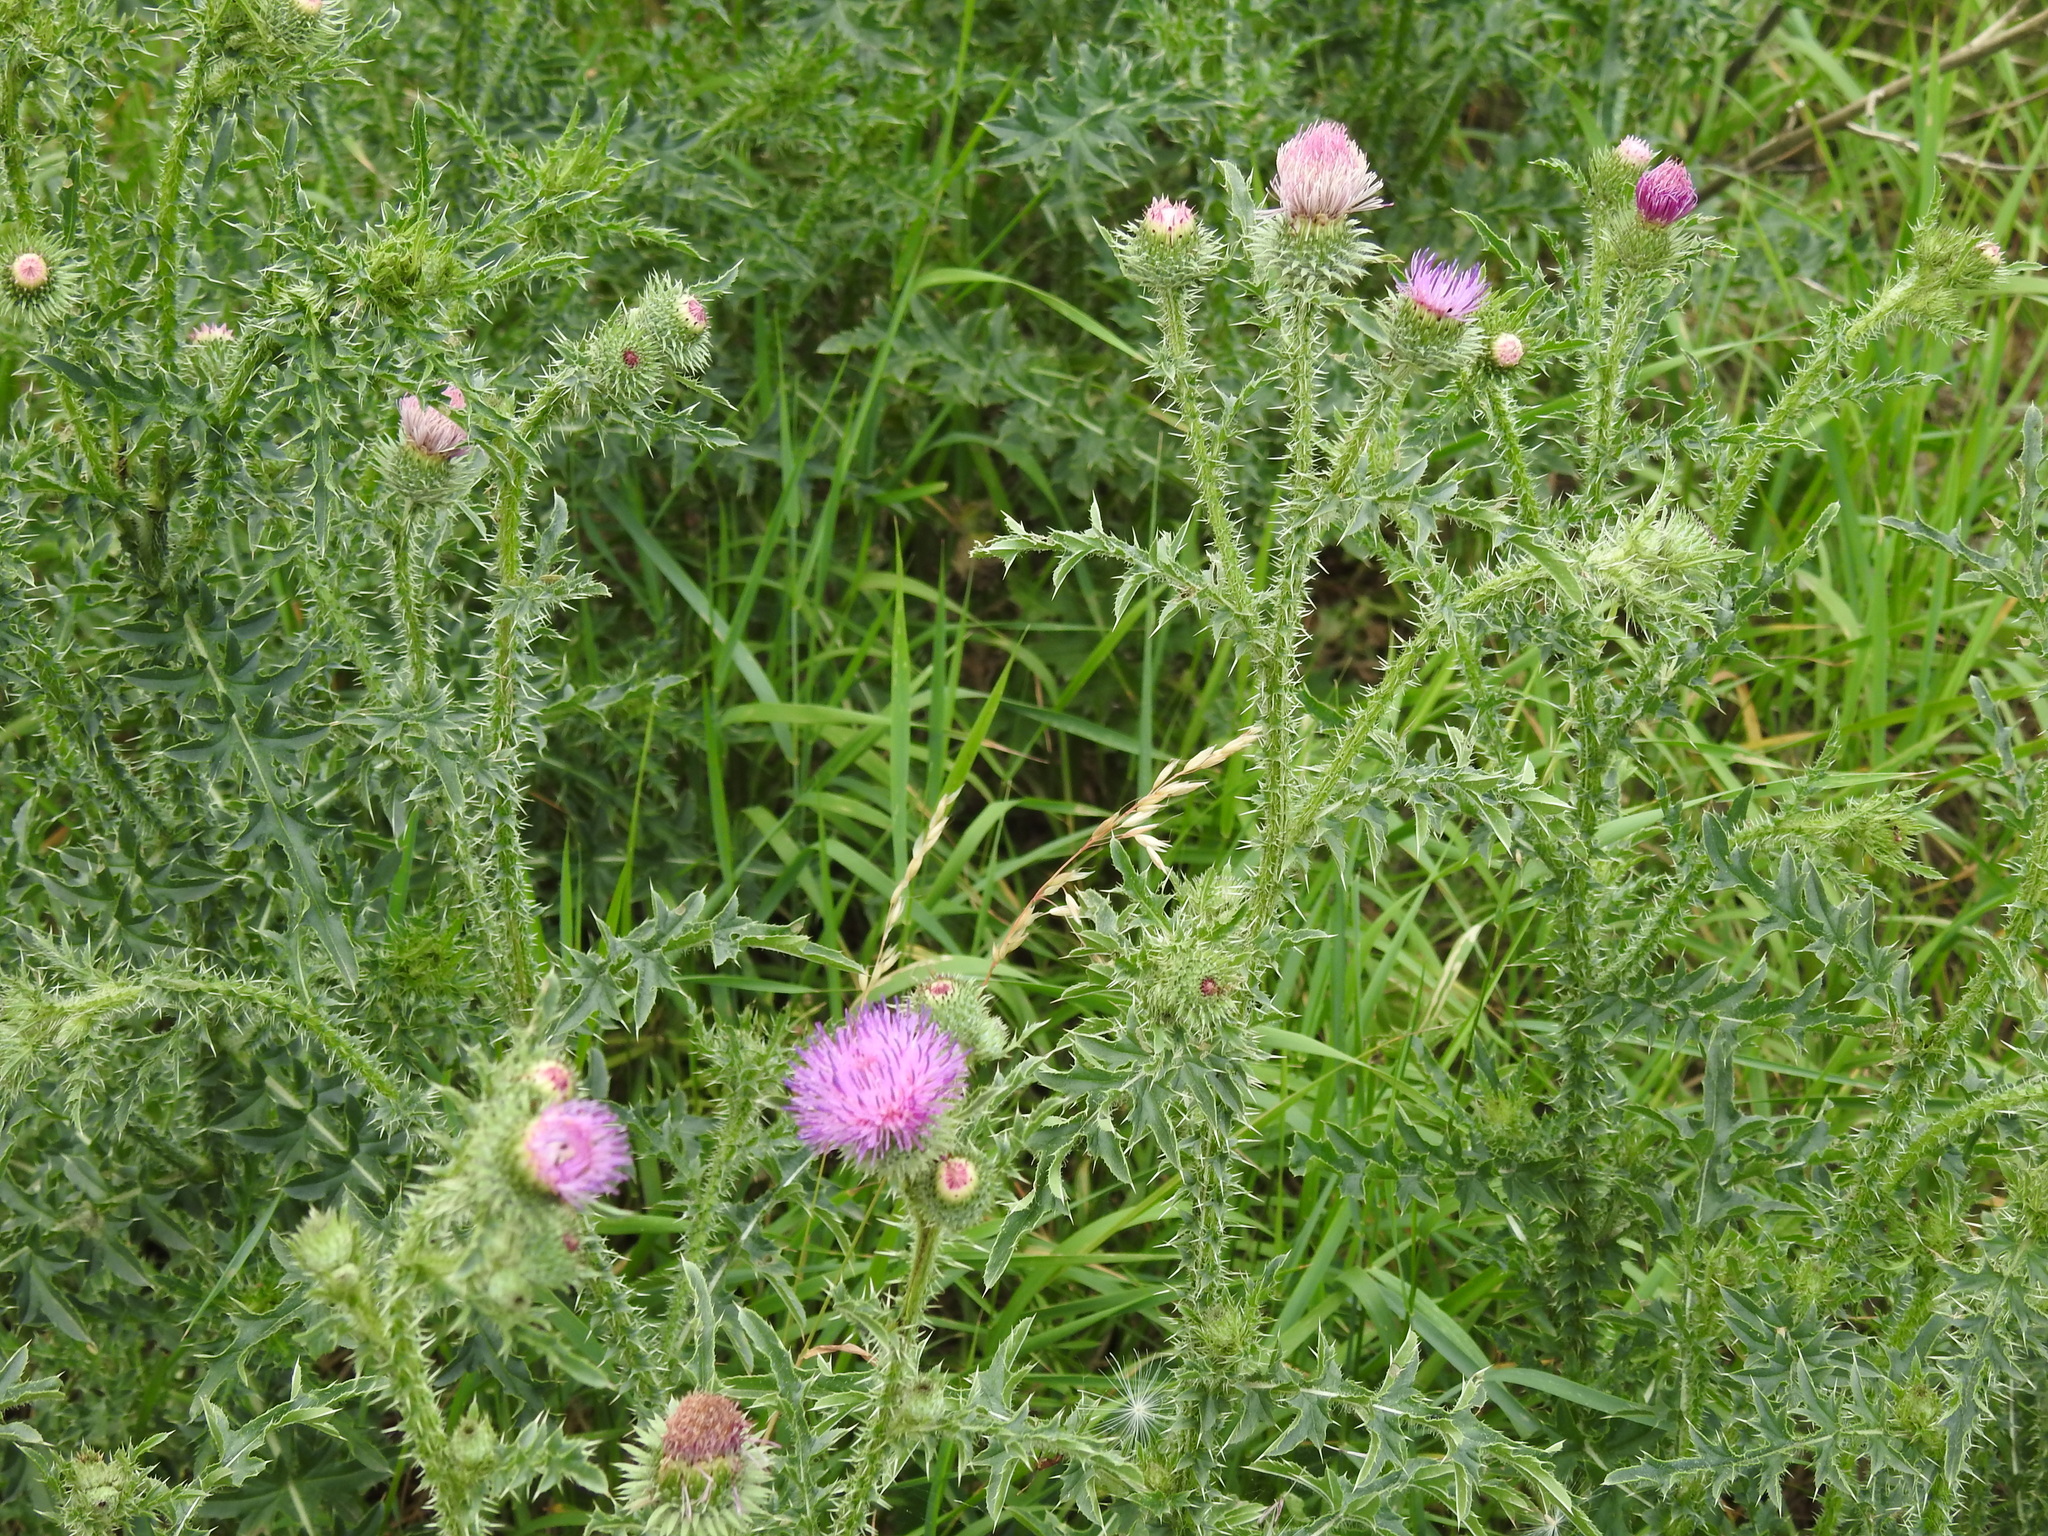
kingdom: Plantae
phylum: Tracheophyta
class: Magnoliopsida
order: Asterales
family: Asteraceae
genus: Carduus
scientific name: Carduus acanthoides
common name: Plumeless thistle
